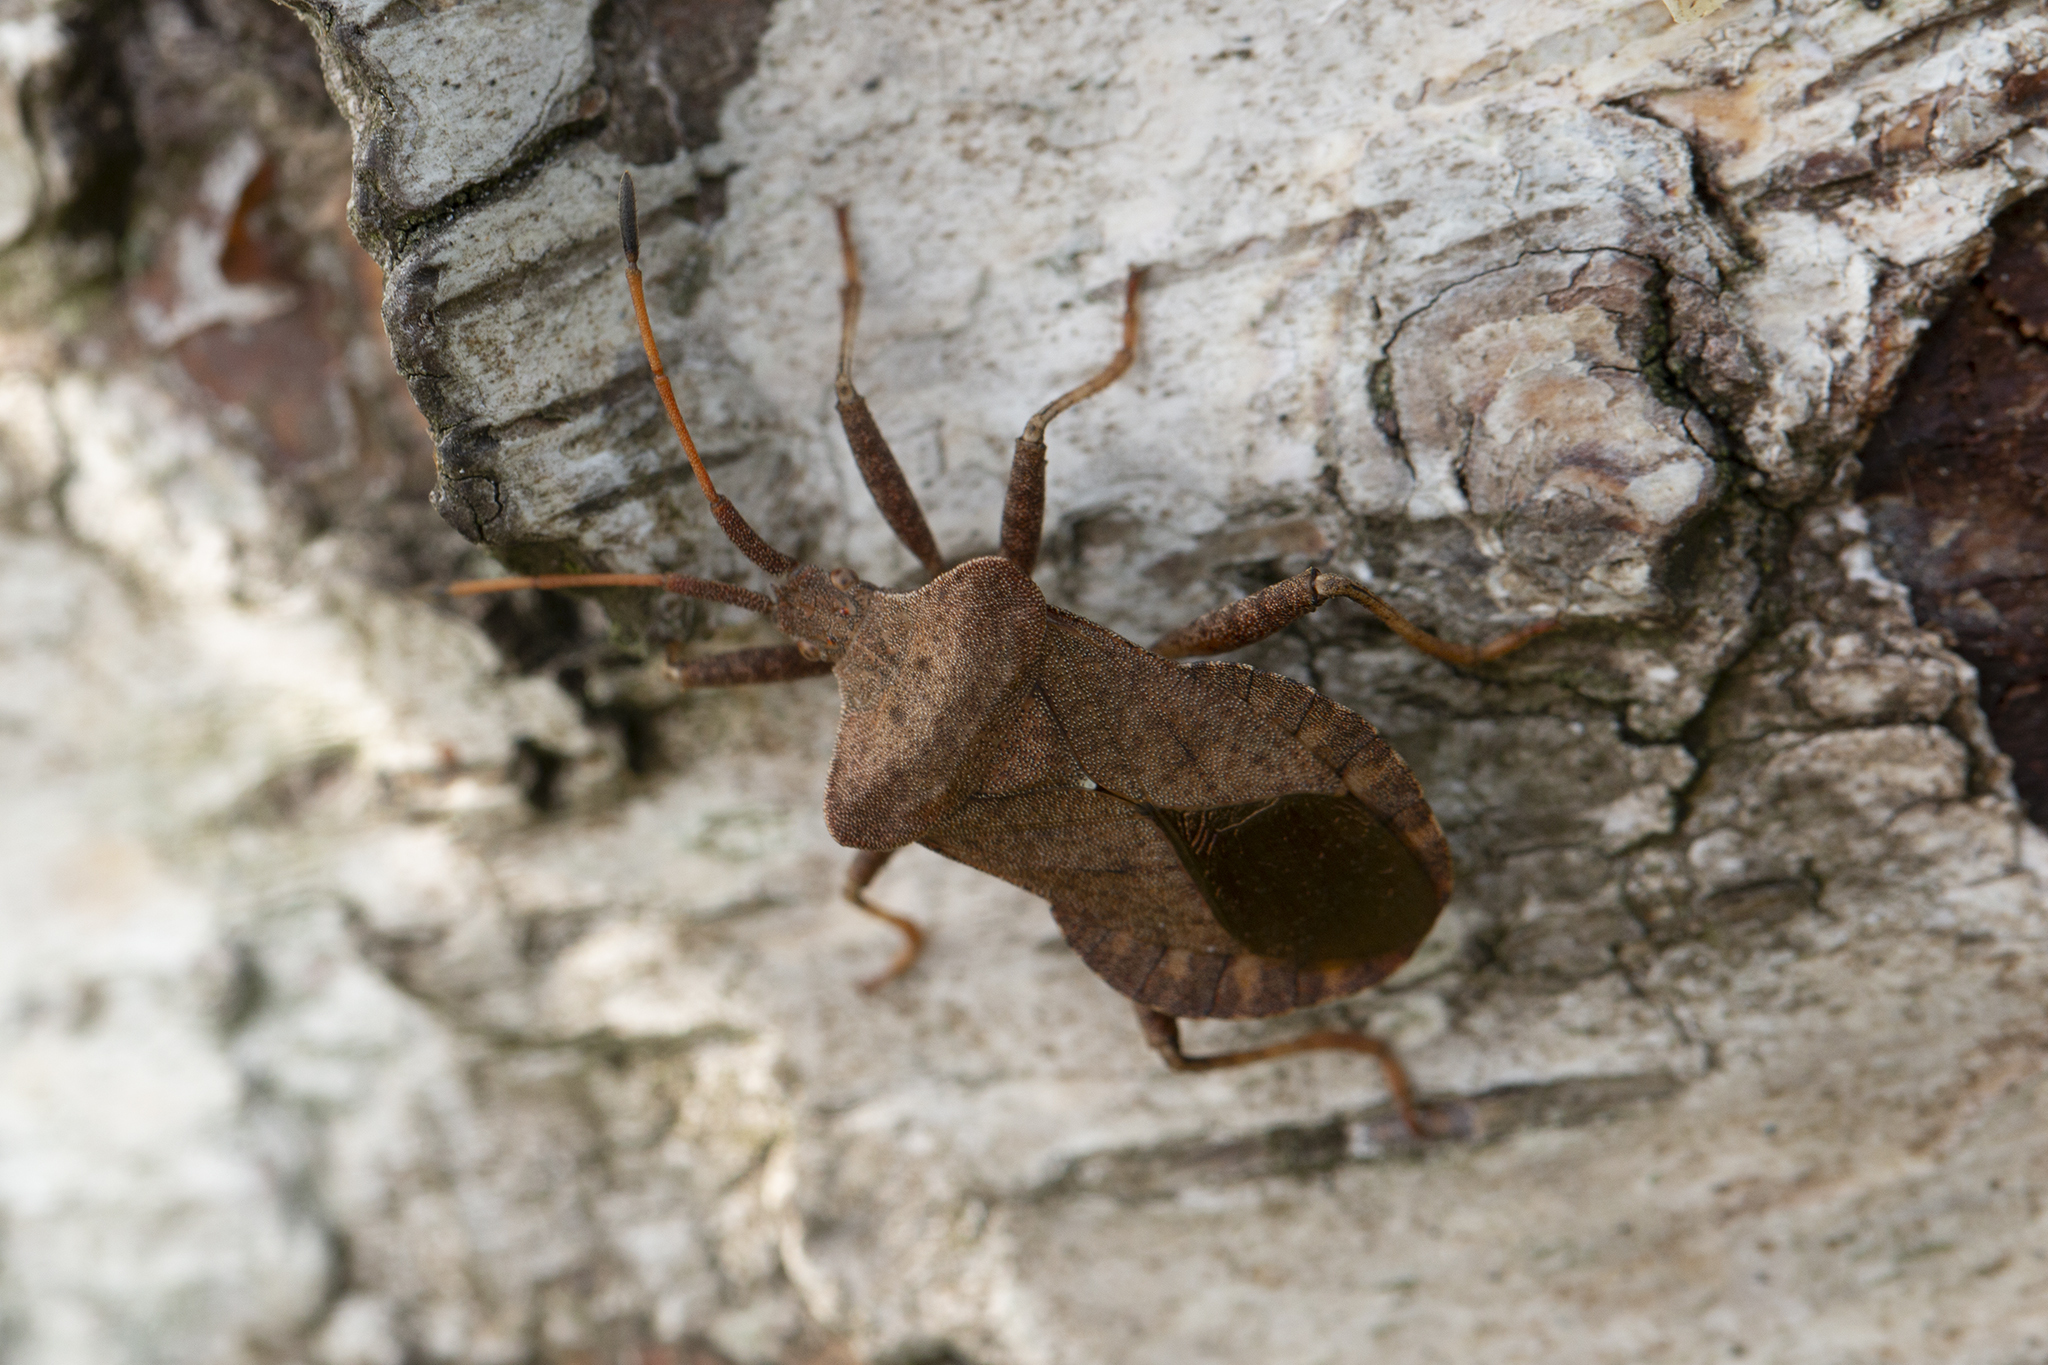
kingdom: Animalia
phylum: Arthropoda
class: Insecta
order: Hemiptera
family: Coreidae
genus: Coreus
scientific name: Coreus marginatus
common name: Dock bug
